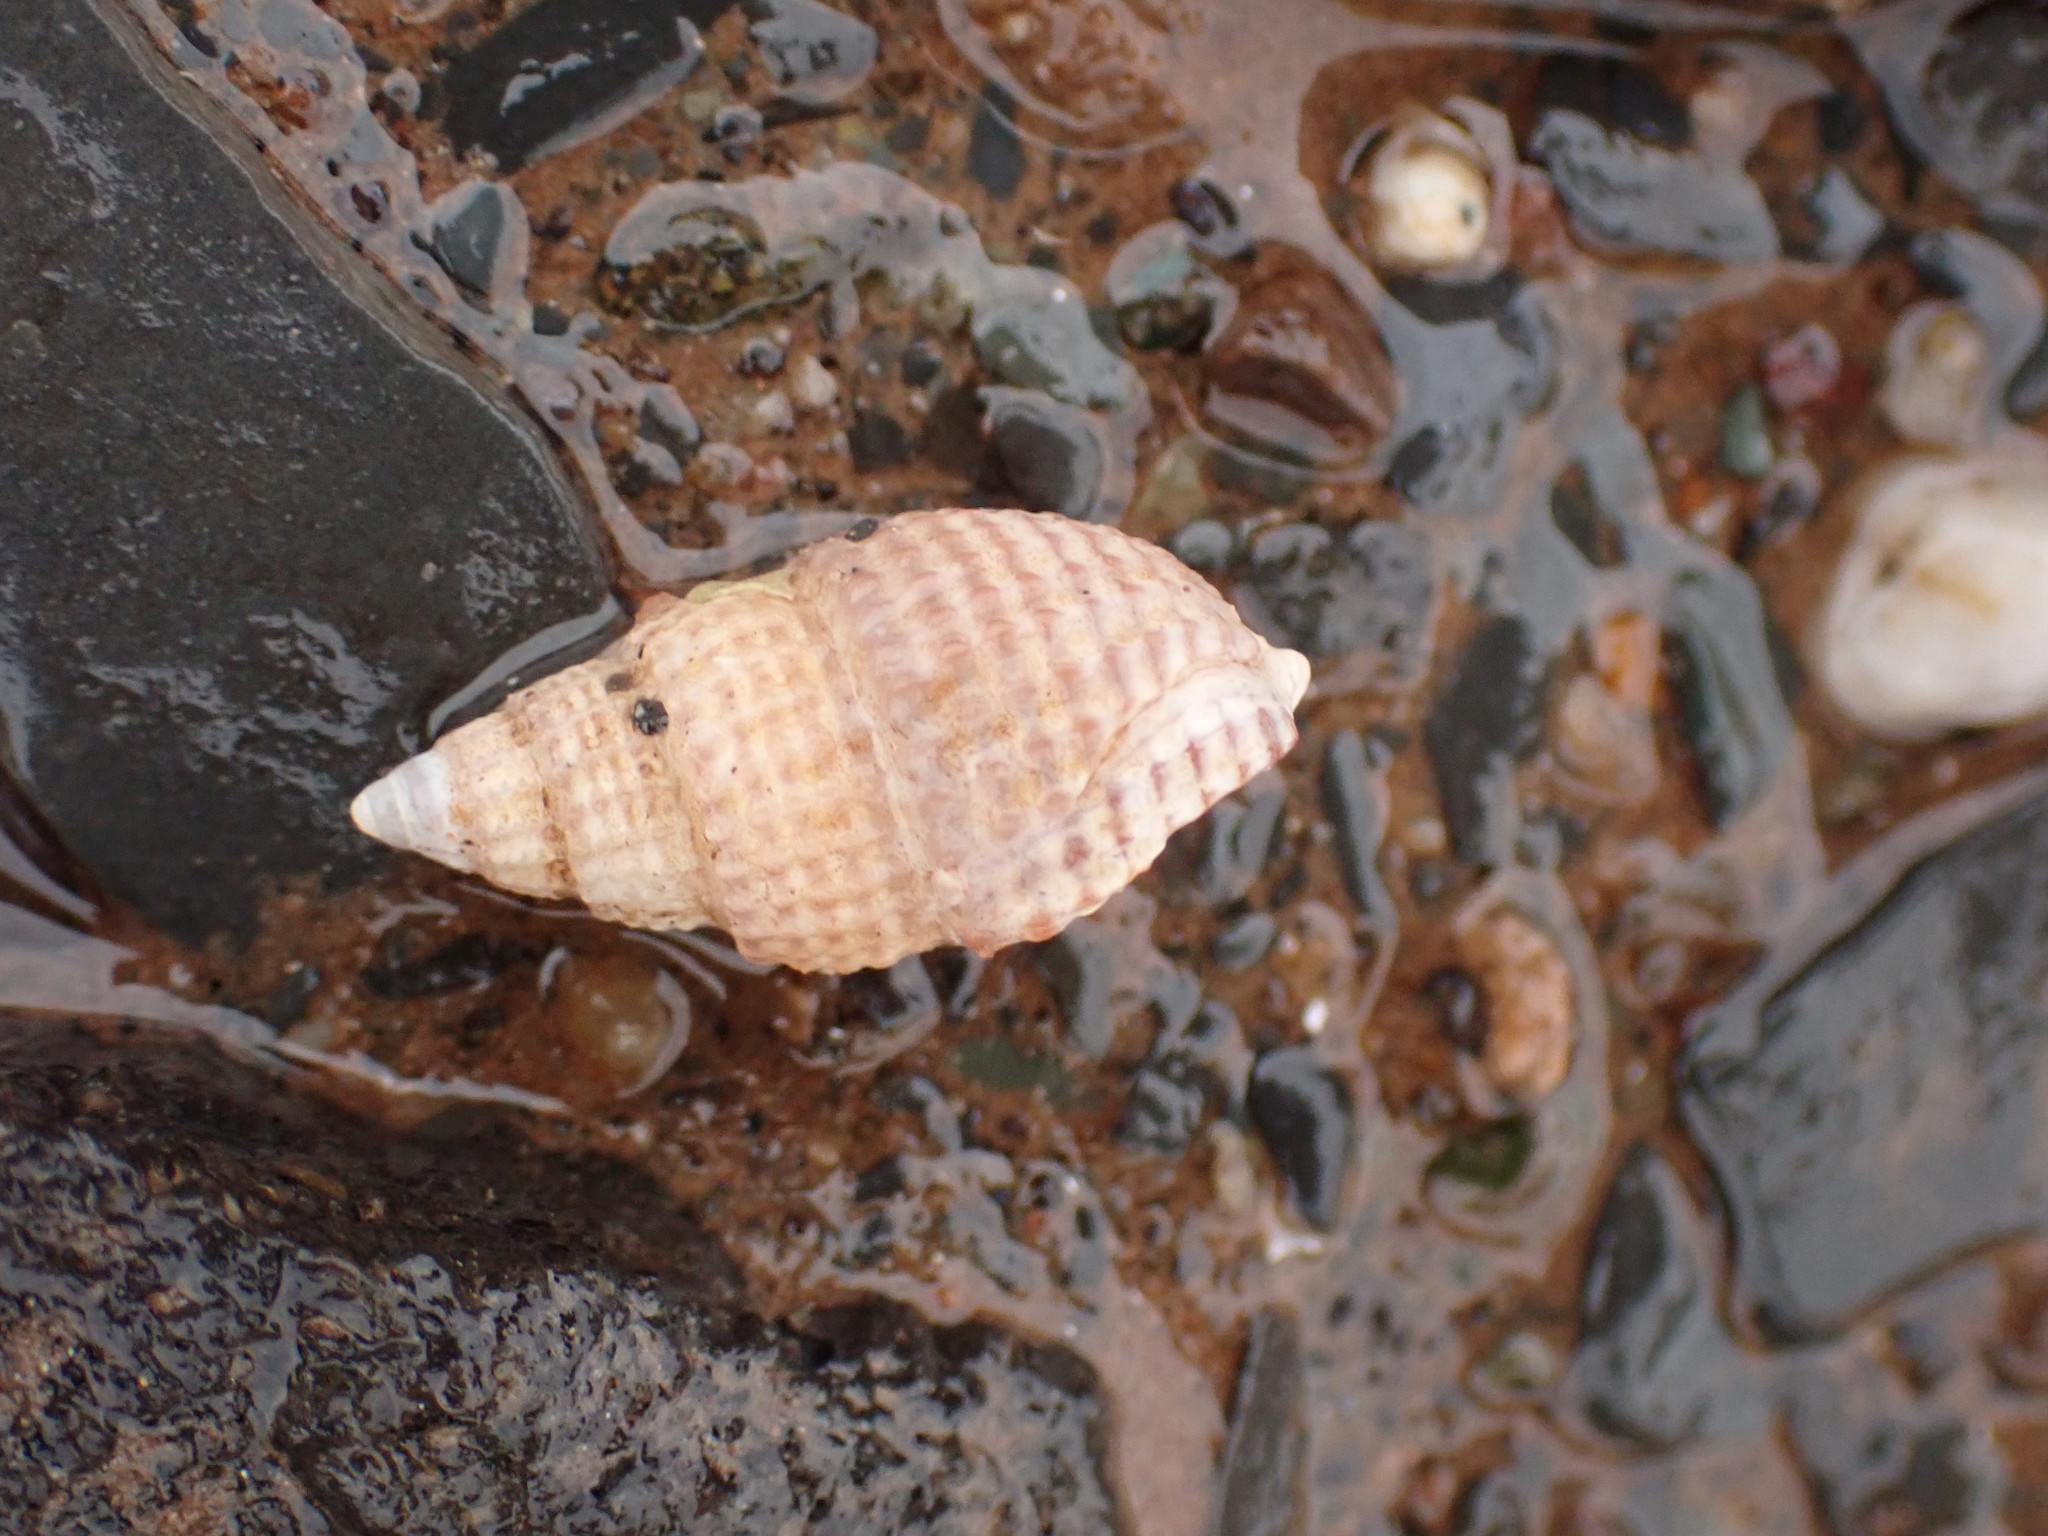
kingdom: Animalia
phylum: Mollusca
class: Gastropoda
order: Neogastropoda
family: Nassariidae
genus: Ilyanassa
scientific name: Ilyanassa trivittata
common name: Three-line mudsnail
